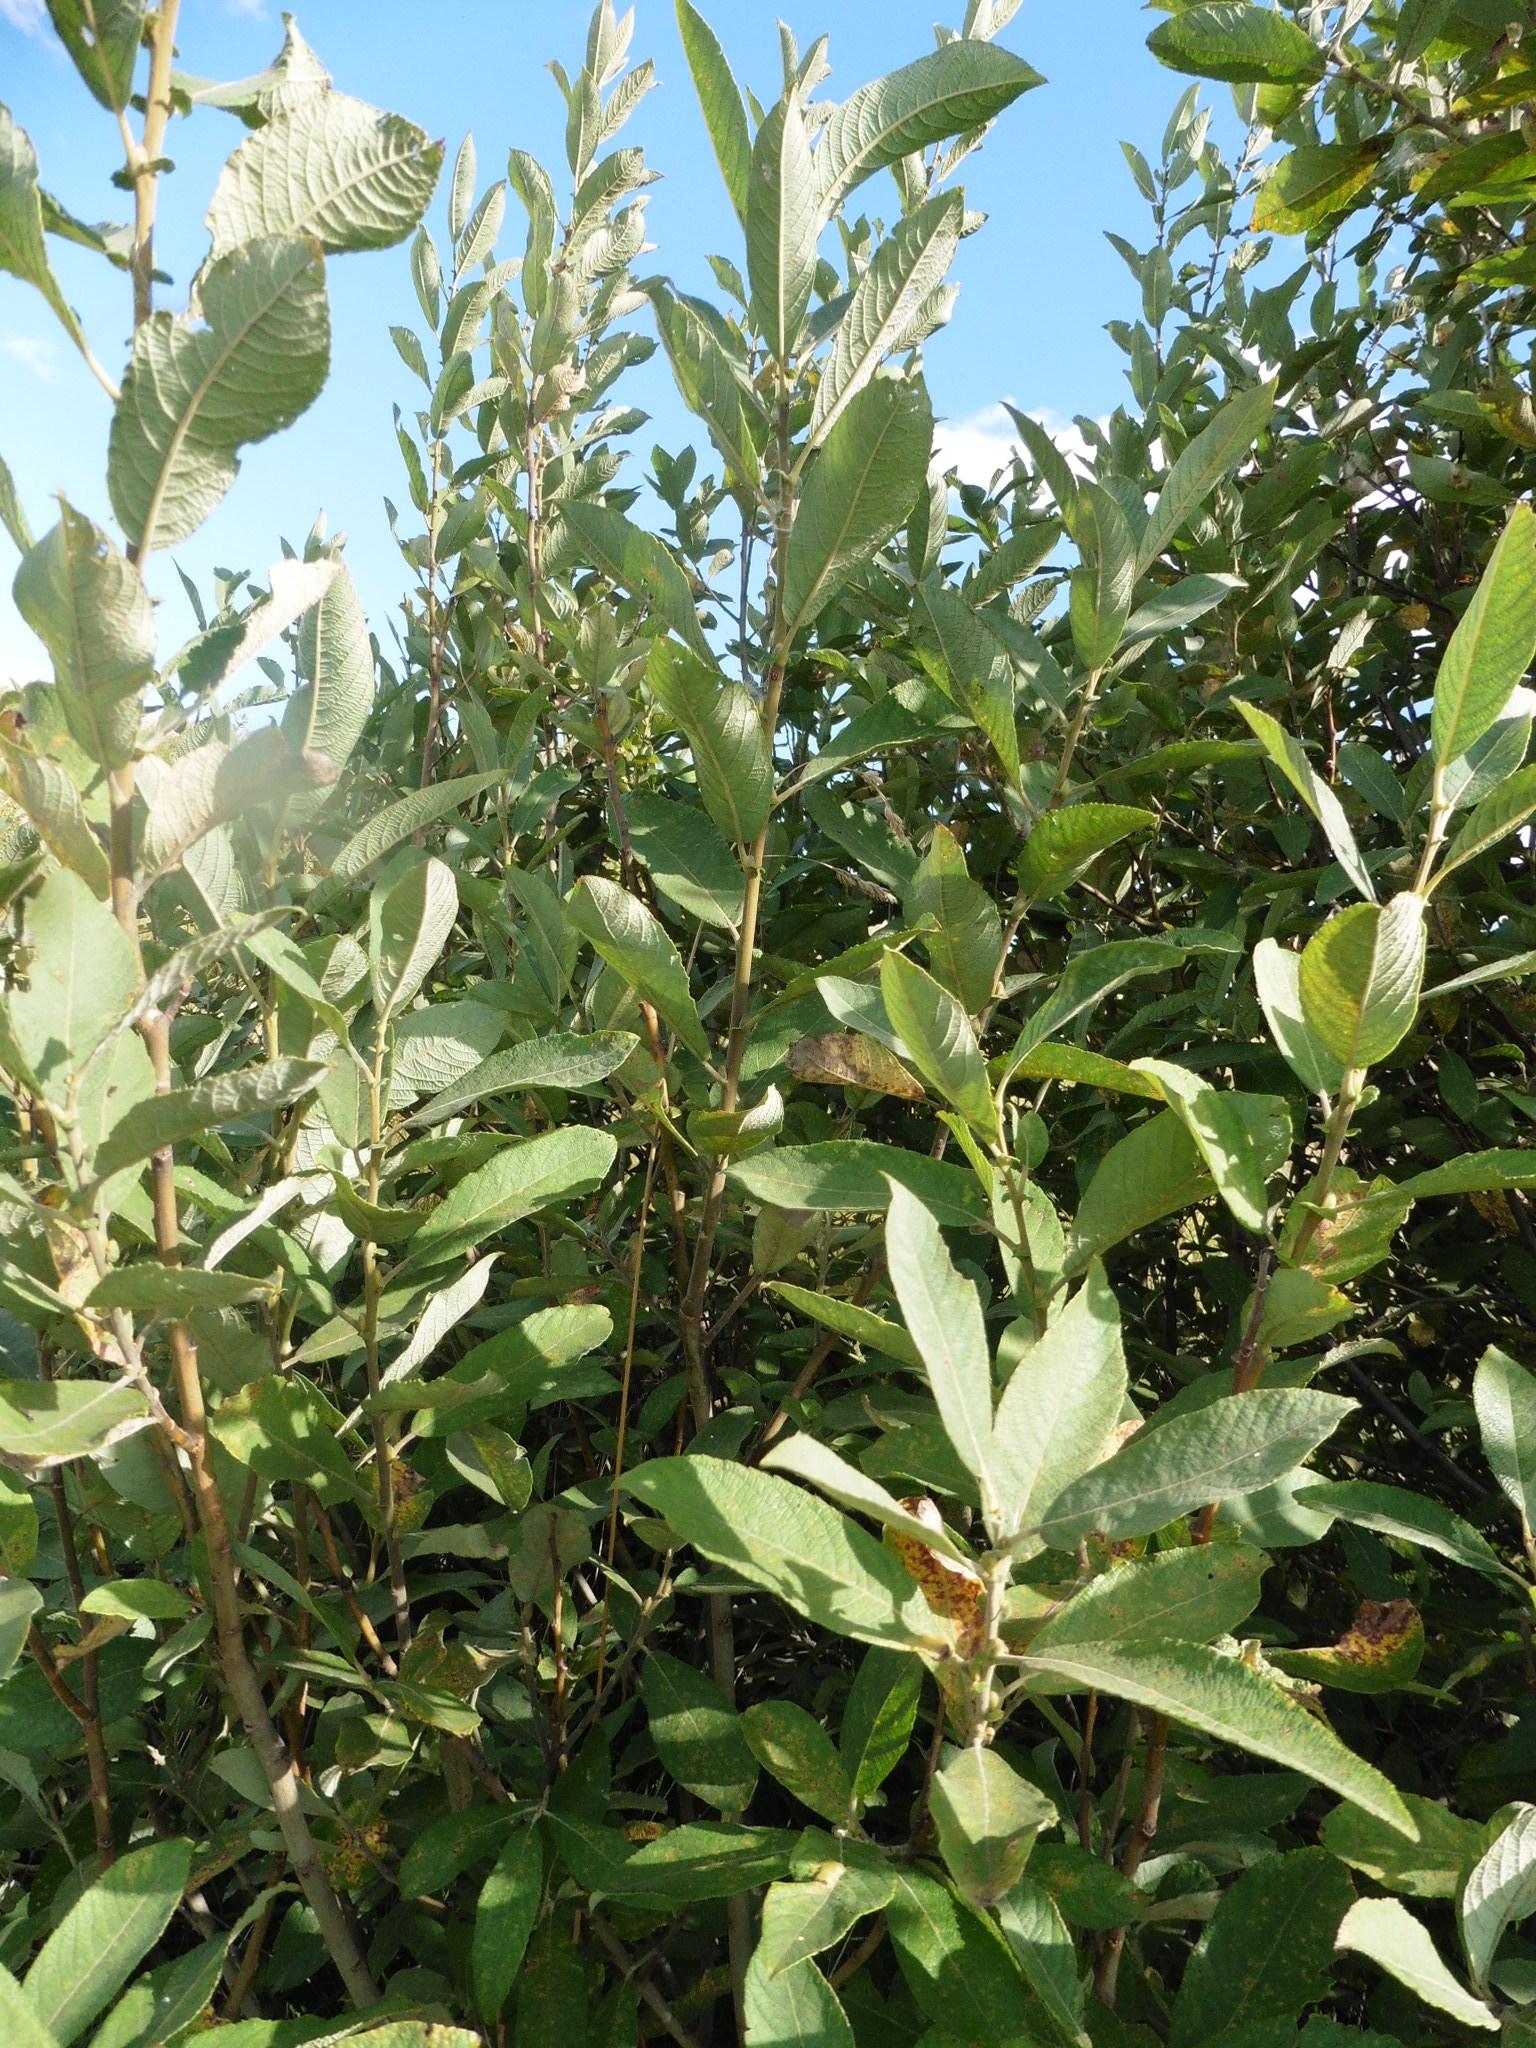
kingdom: Plantae
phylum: Tracheophyta
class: Magnoliopsida
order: Malpighiales
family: Salicaceae
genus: Salix
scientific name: Salix cinerea
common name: Common sallow
